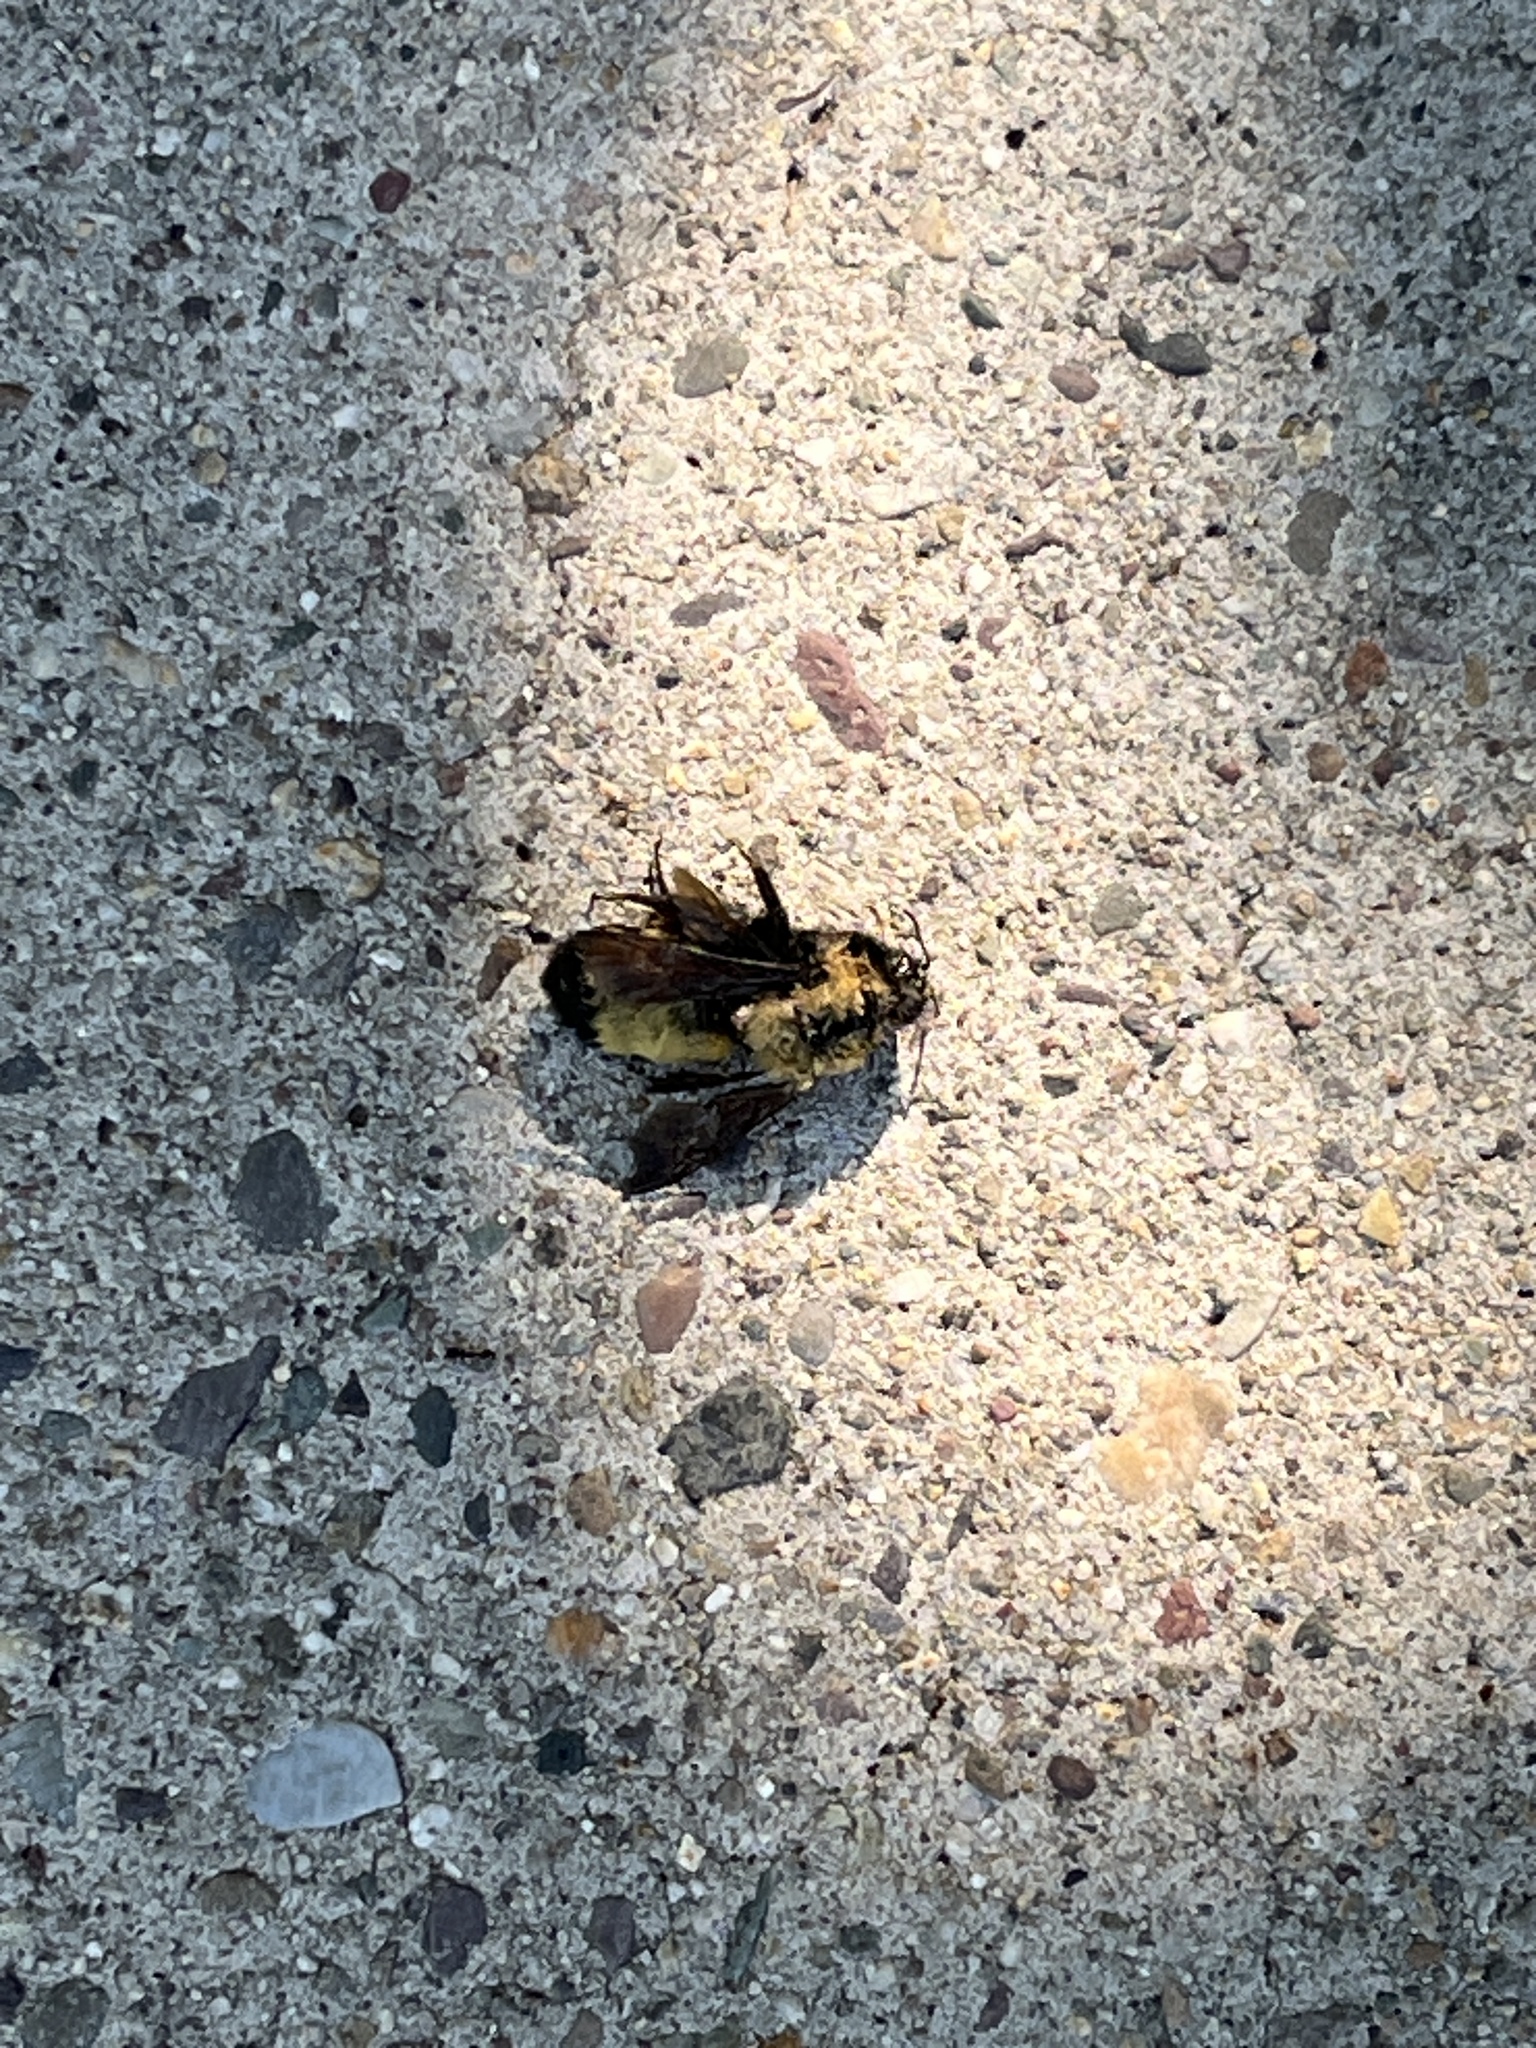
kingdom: Animalia
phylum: Arthropoda
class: Insecta
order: Hymenoptera
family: Apidae
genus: Bombus
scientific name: Bombus nevadensis
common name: Nevada bumble bee
